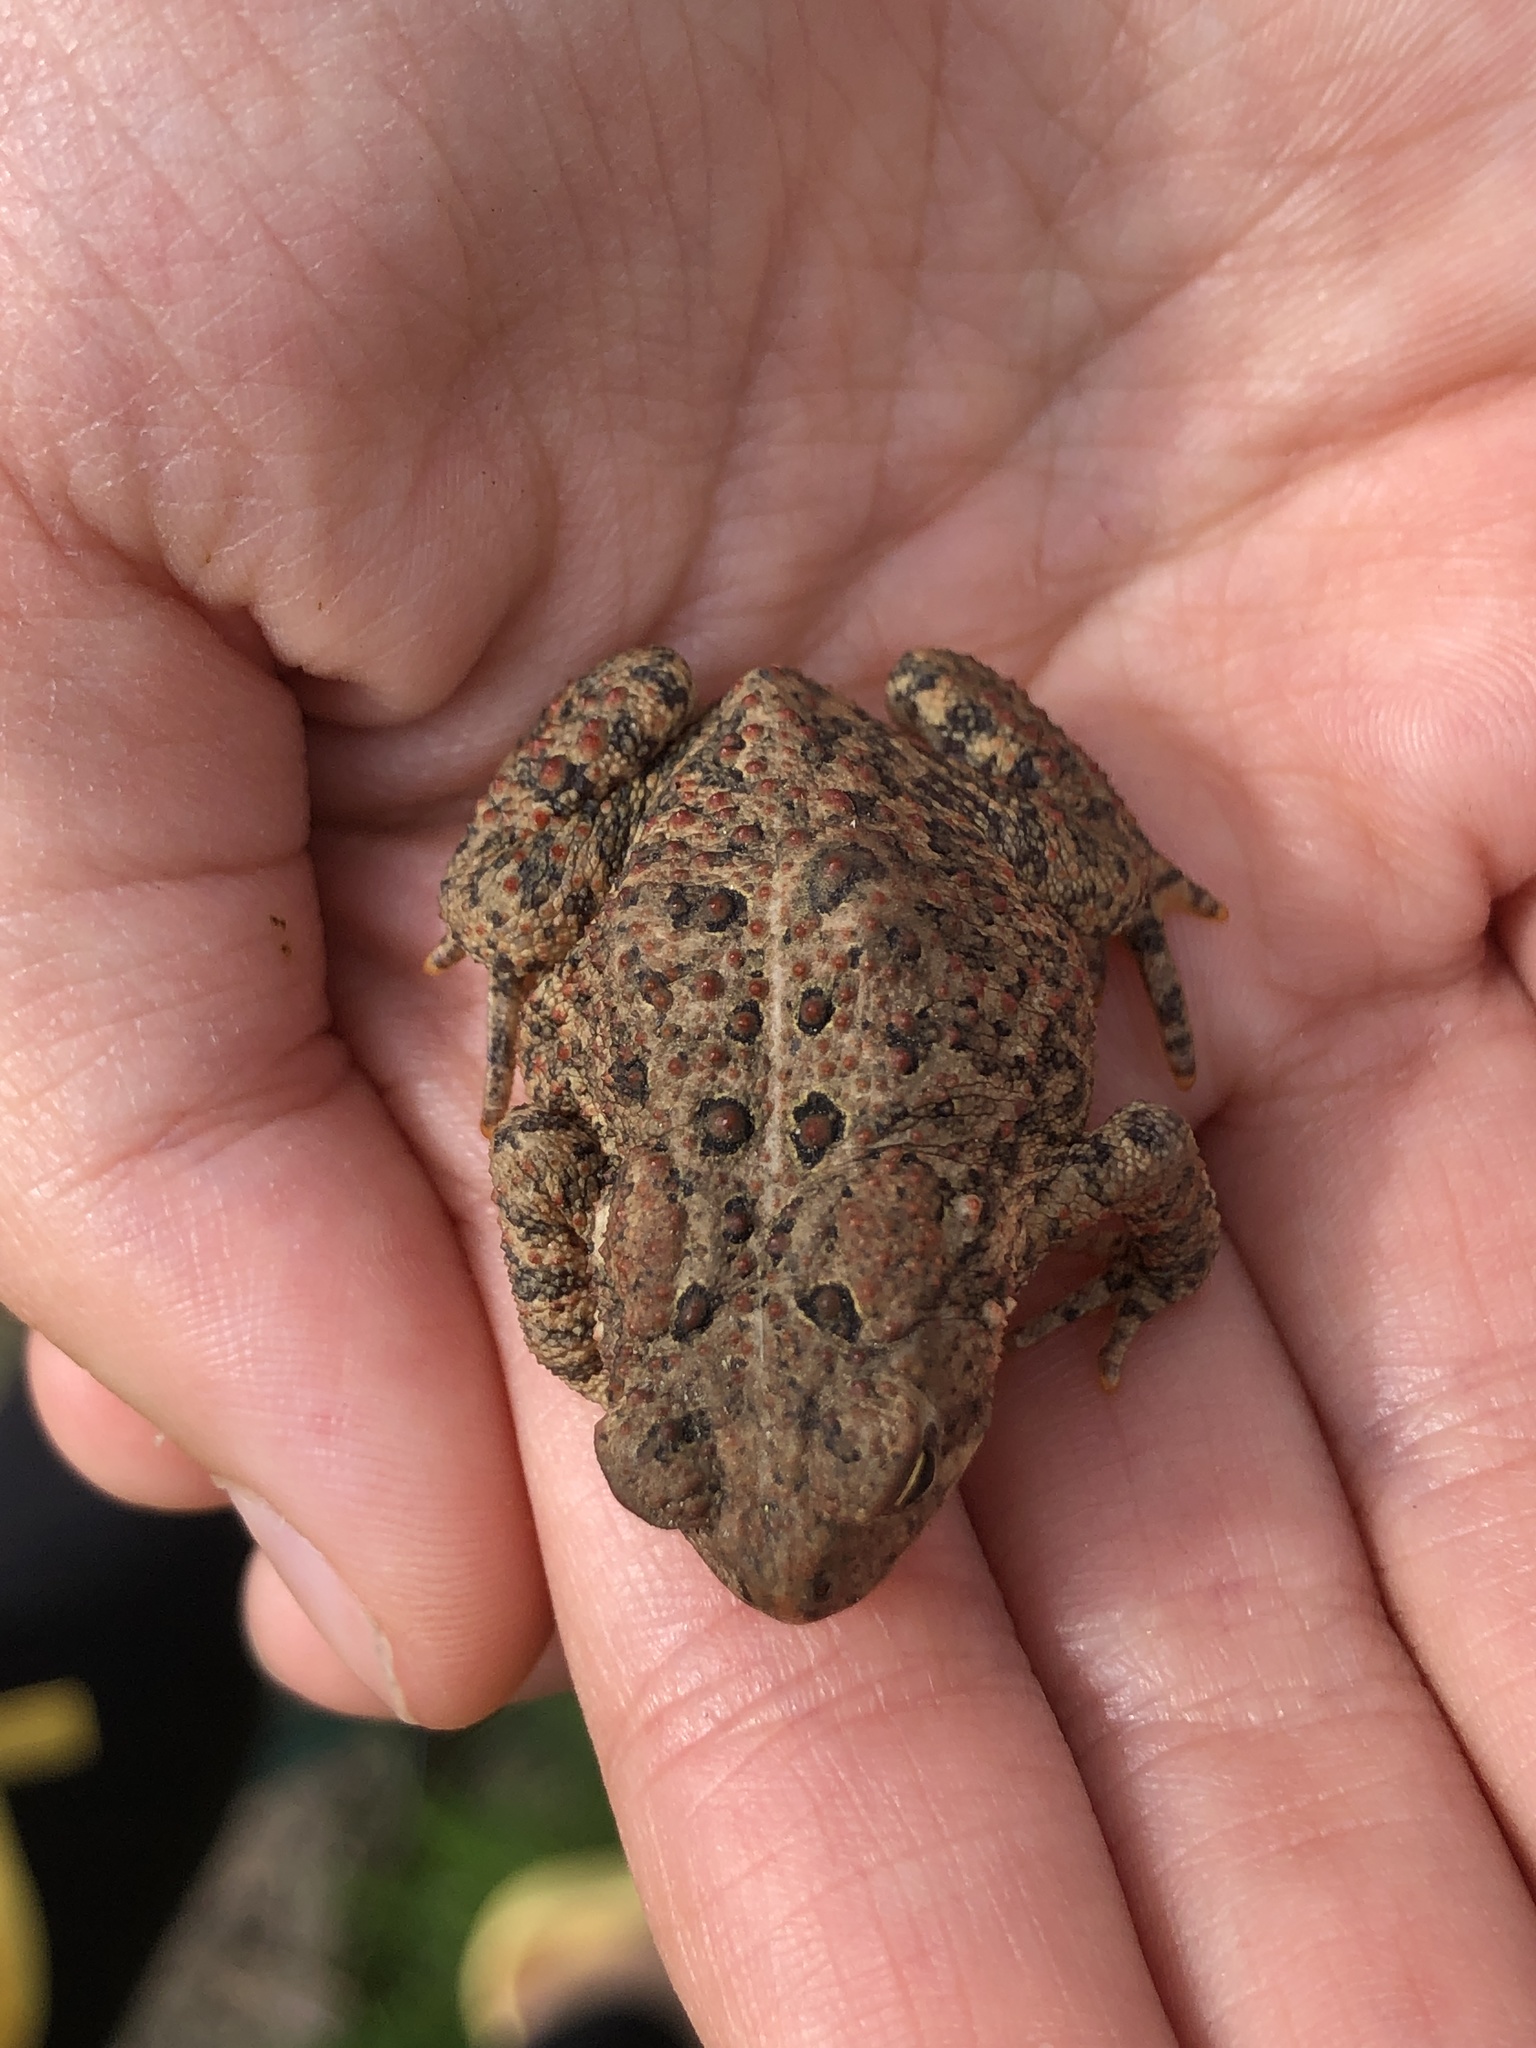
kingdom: Animalia
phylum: Chordata
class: Amphibia
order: Anura
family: Bufonidae
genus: Anaxyrus
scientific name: Anaxyrus americanus
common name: American toad
